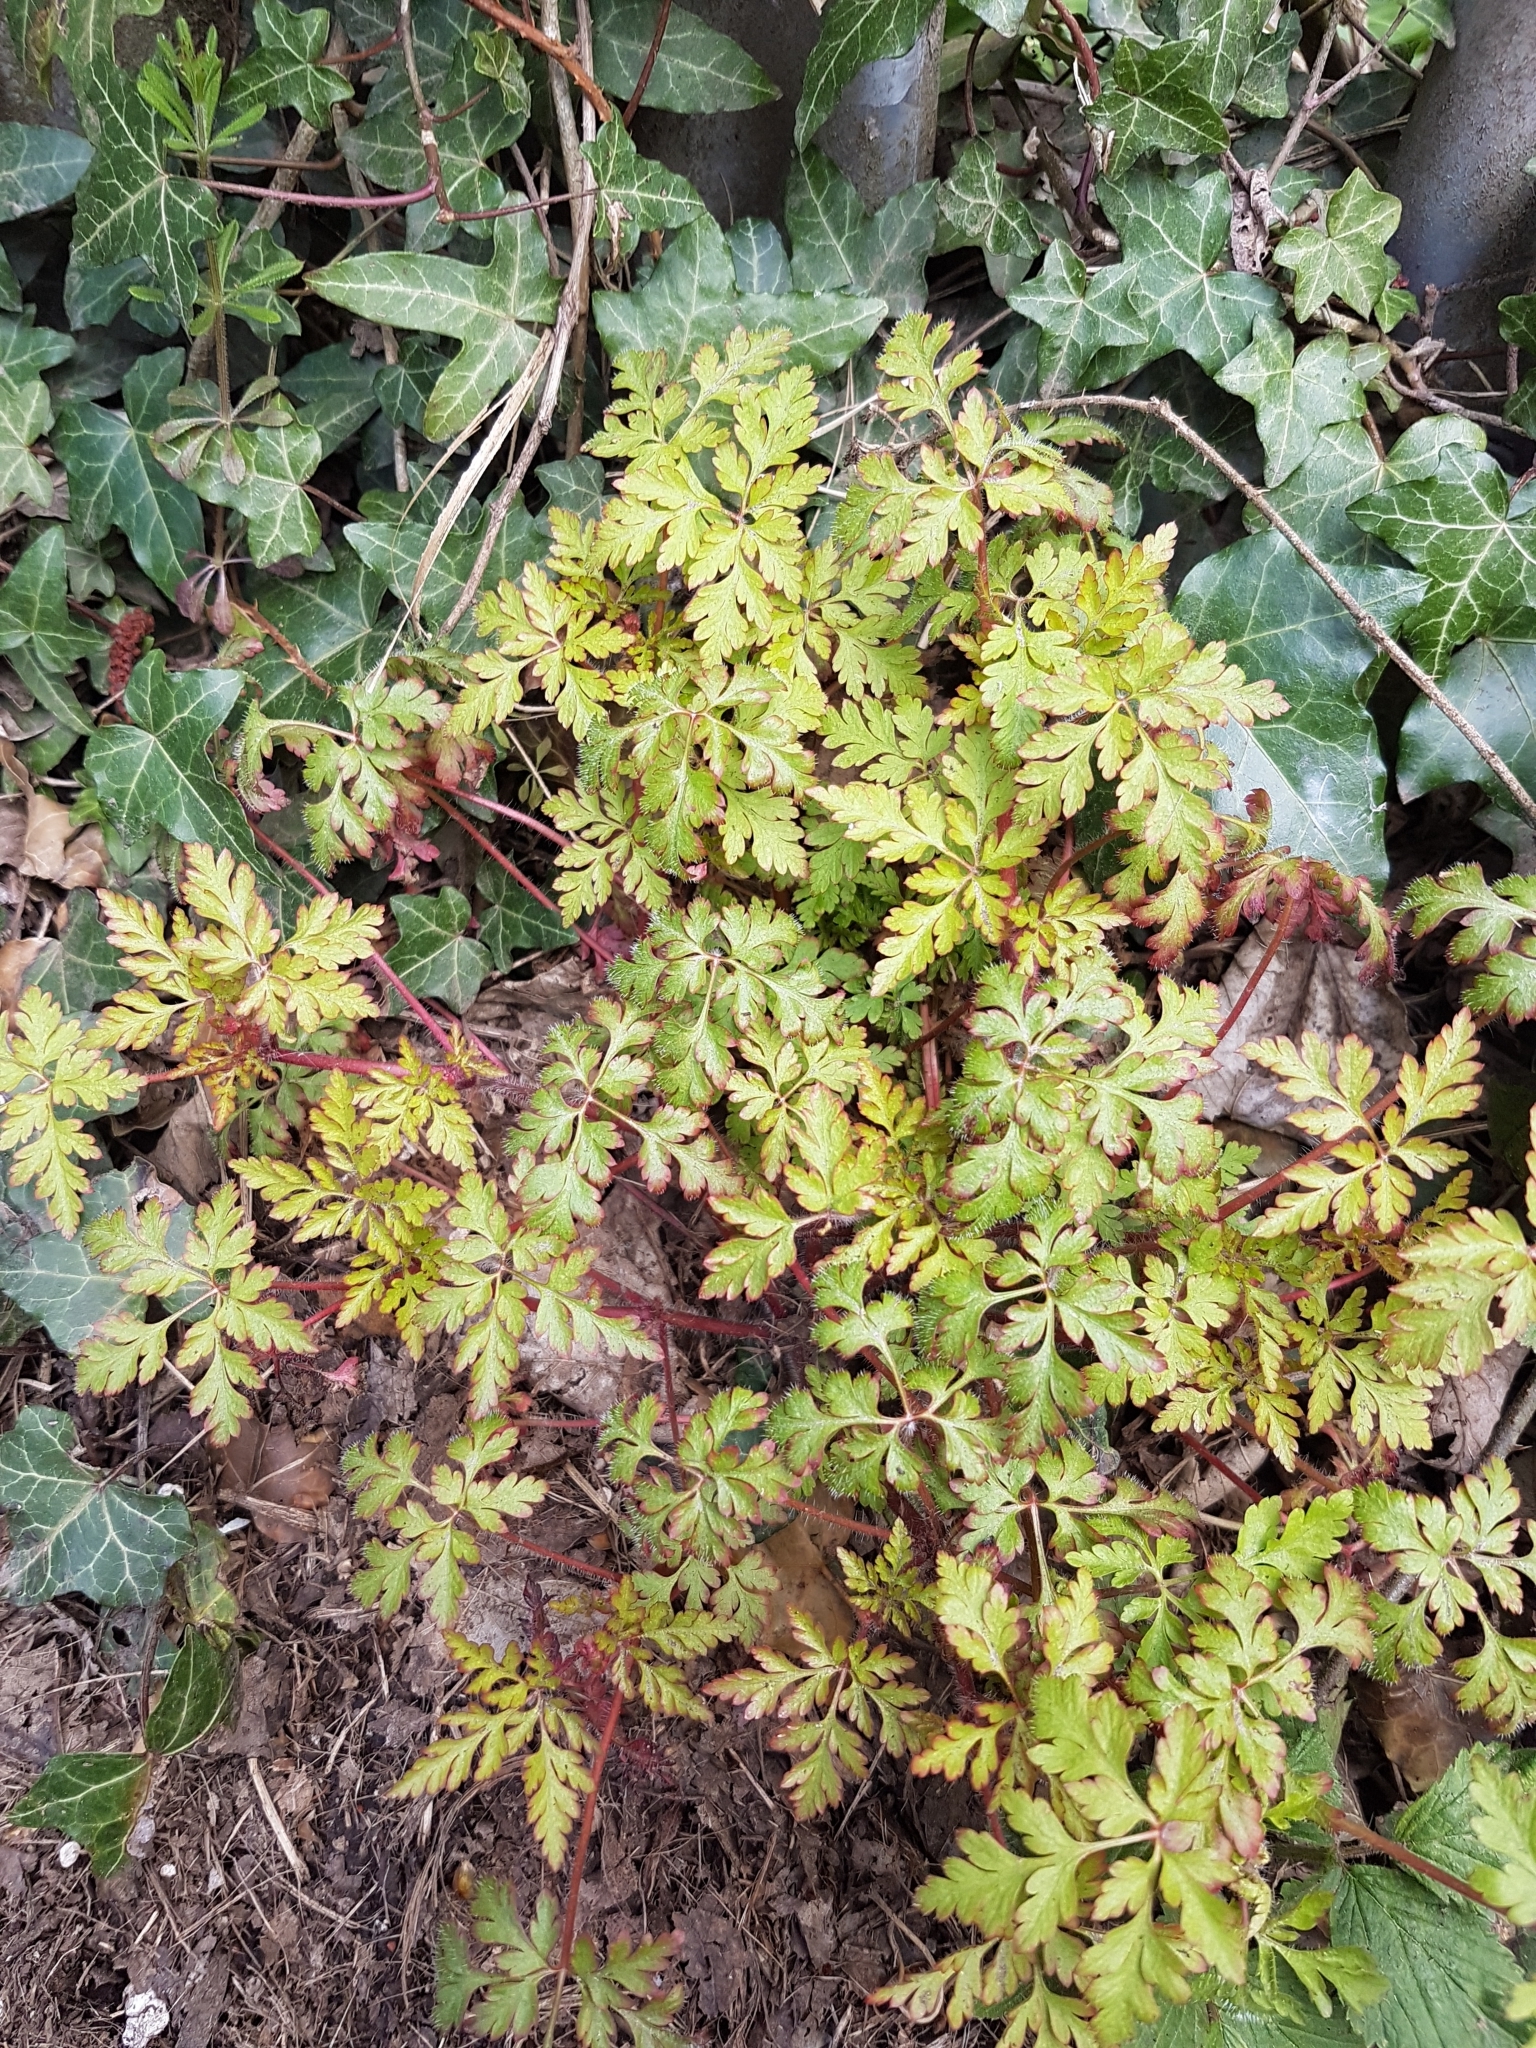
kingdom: Plantae
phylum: Tracheophyta
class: Magnoliopsida
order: Geraniales
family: Geraniaceae
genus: Geranium
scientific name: Geranium robertianum
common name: Herb-robert
